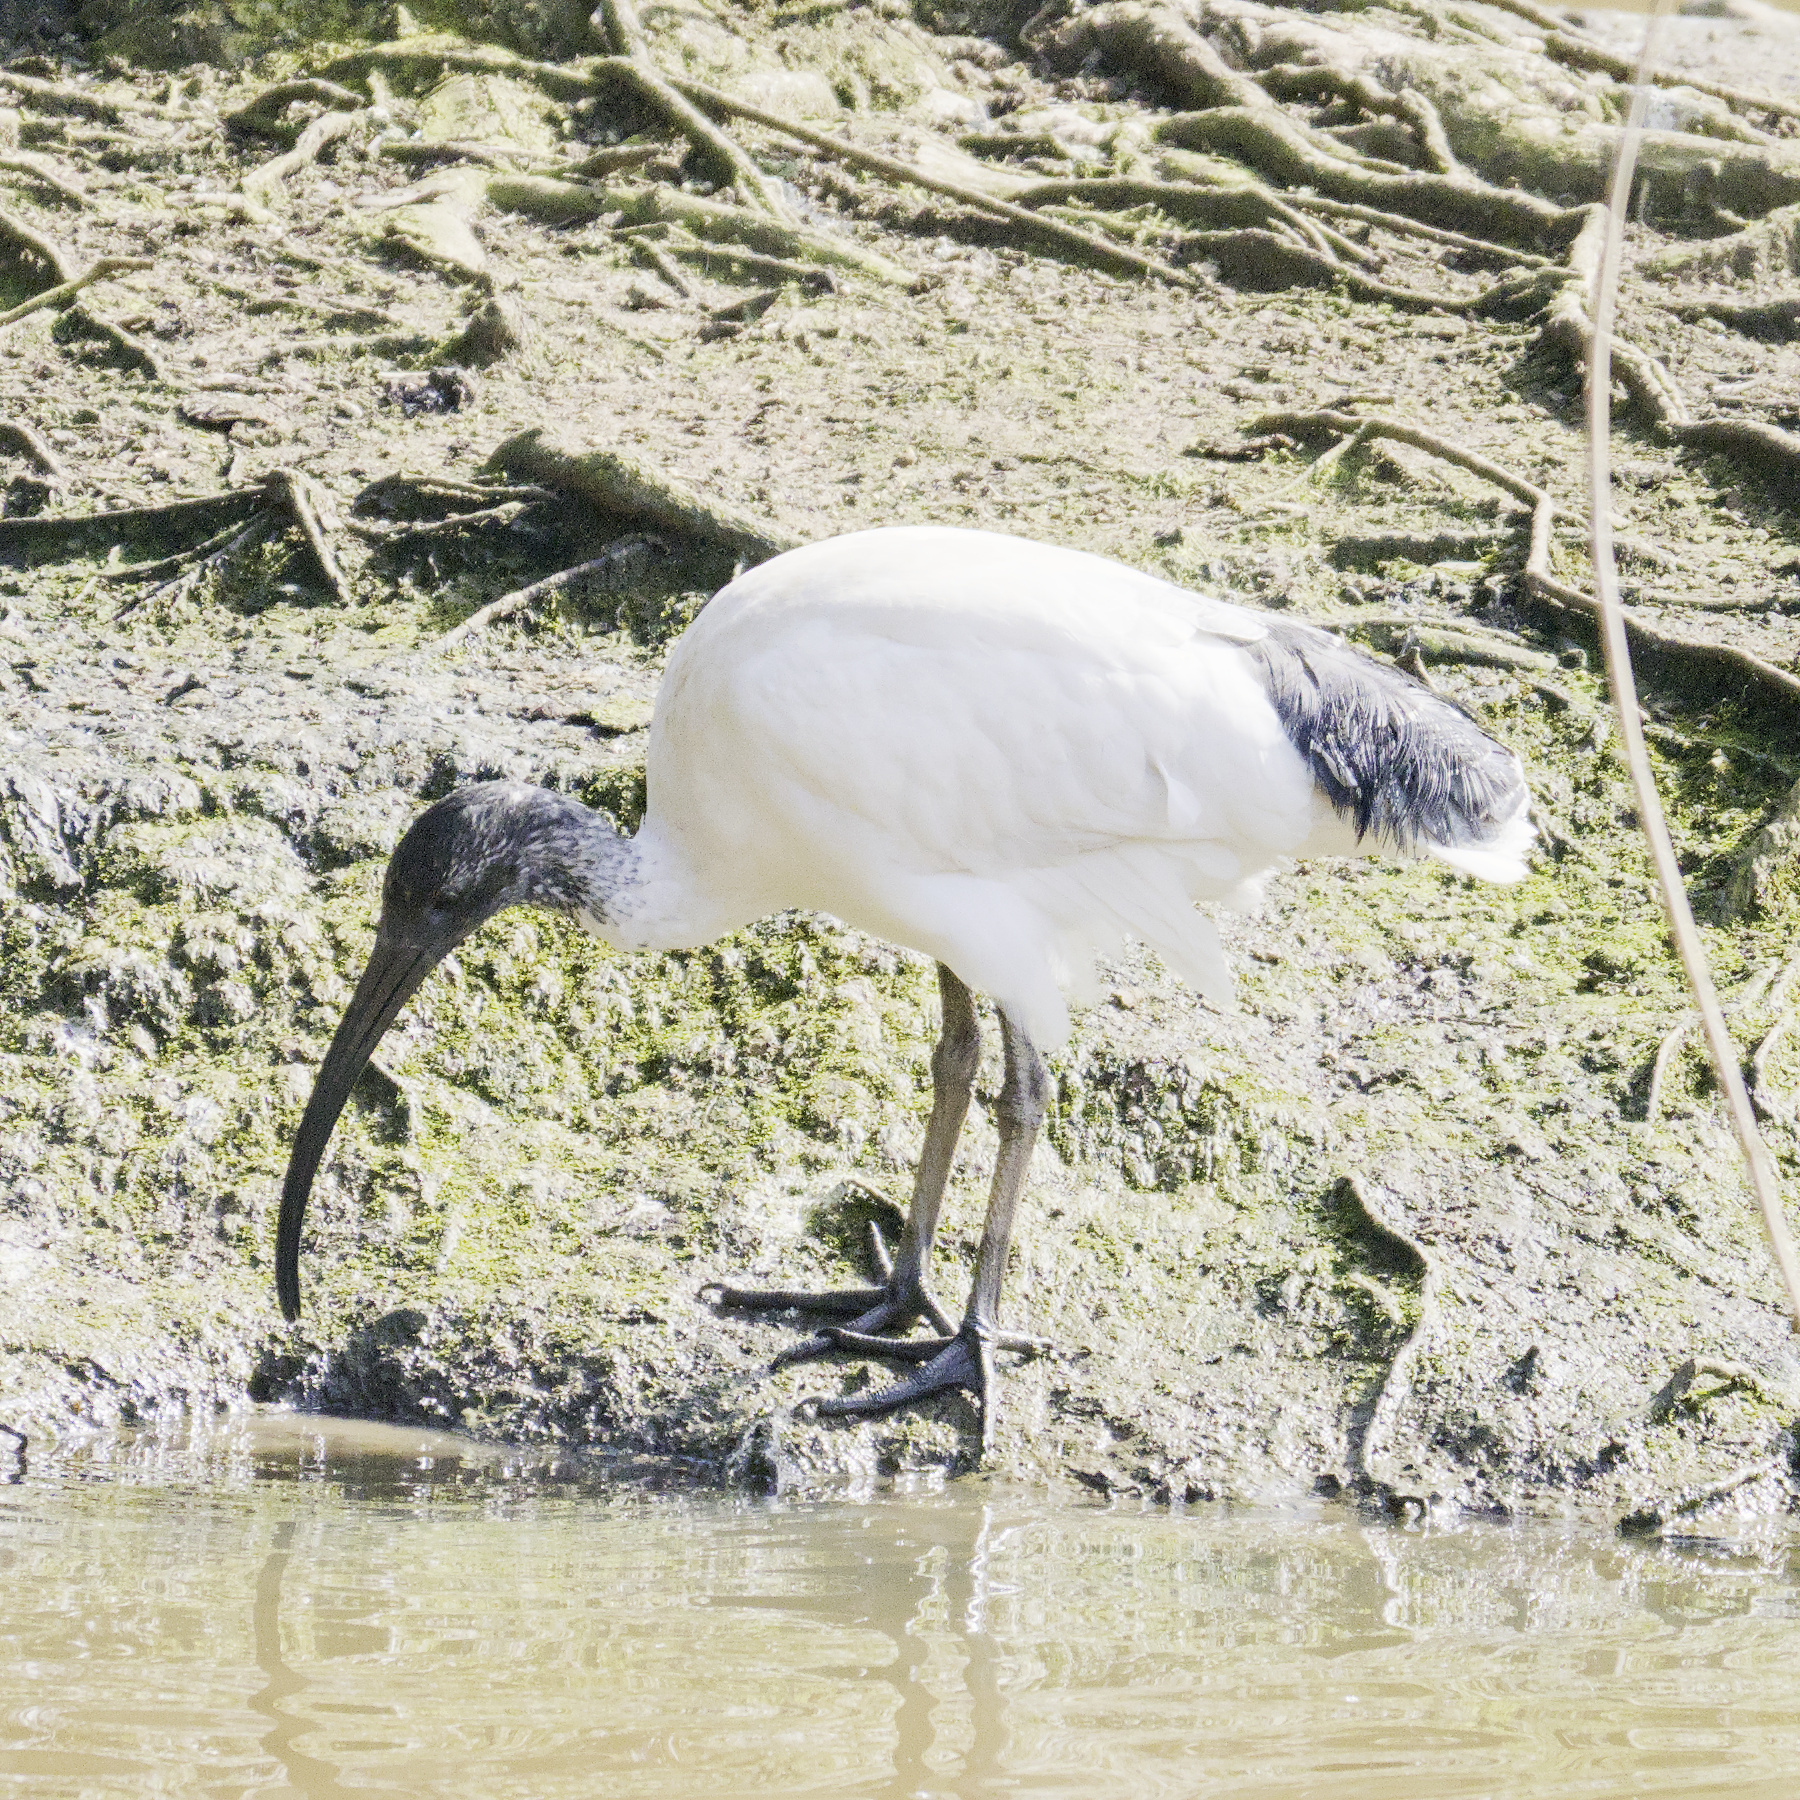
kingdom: Animalia
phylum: Chordata
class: Aves
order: Pelecaniformes
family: Threskiornithidae
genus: Threskiornis
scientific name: Threskiornis molucca
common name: Australian white ibis
